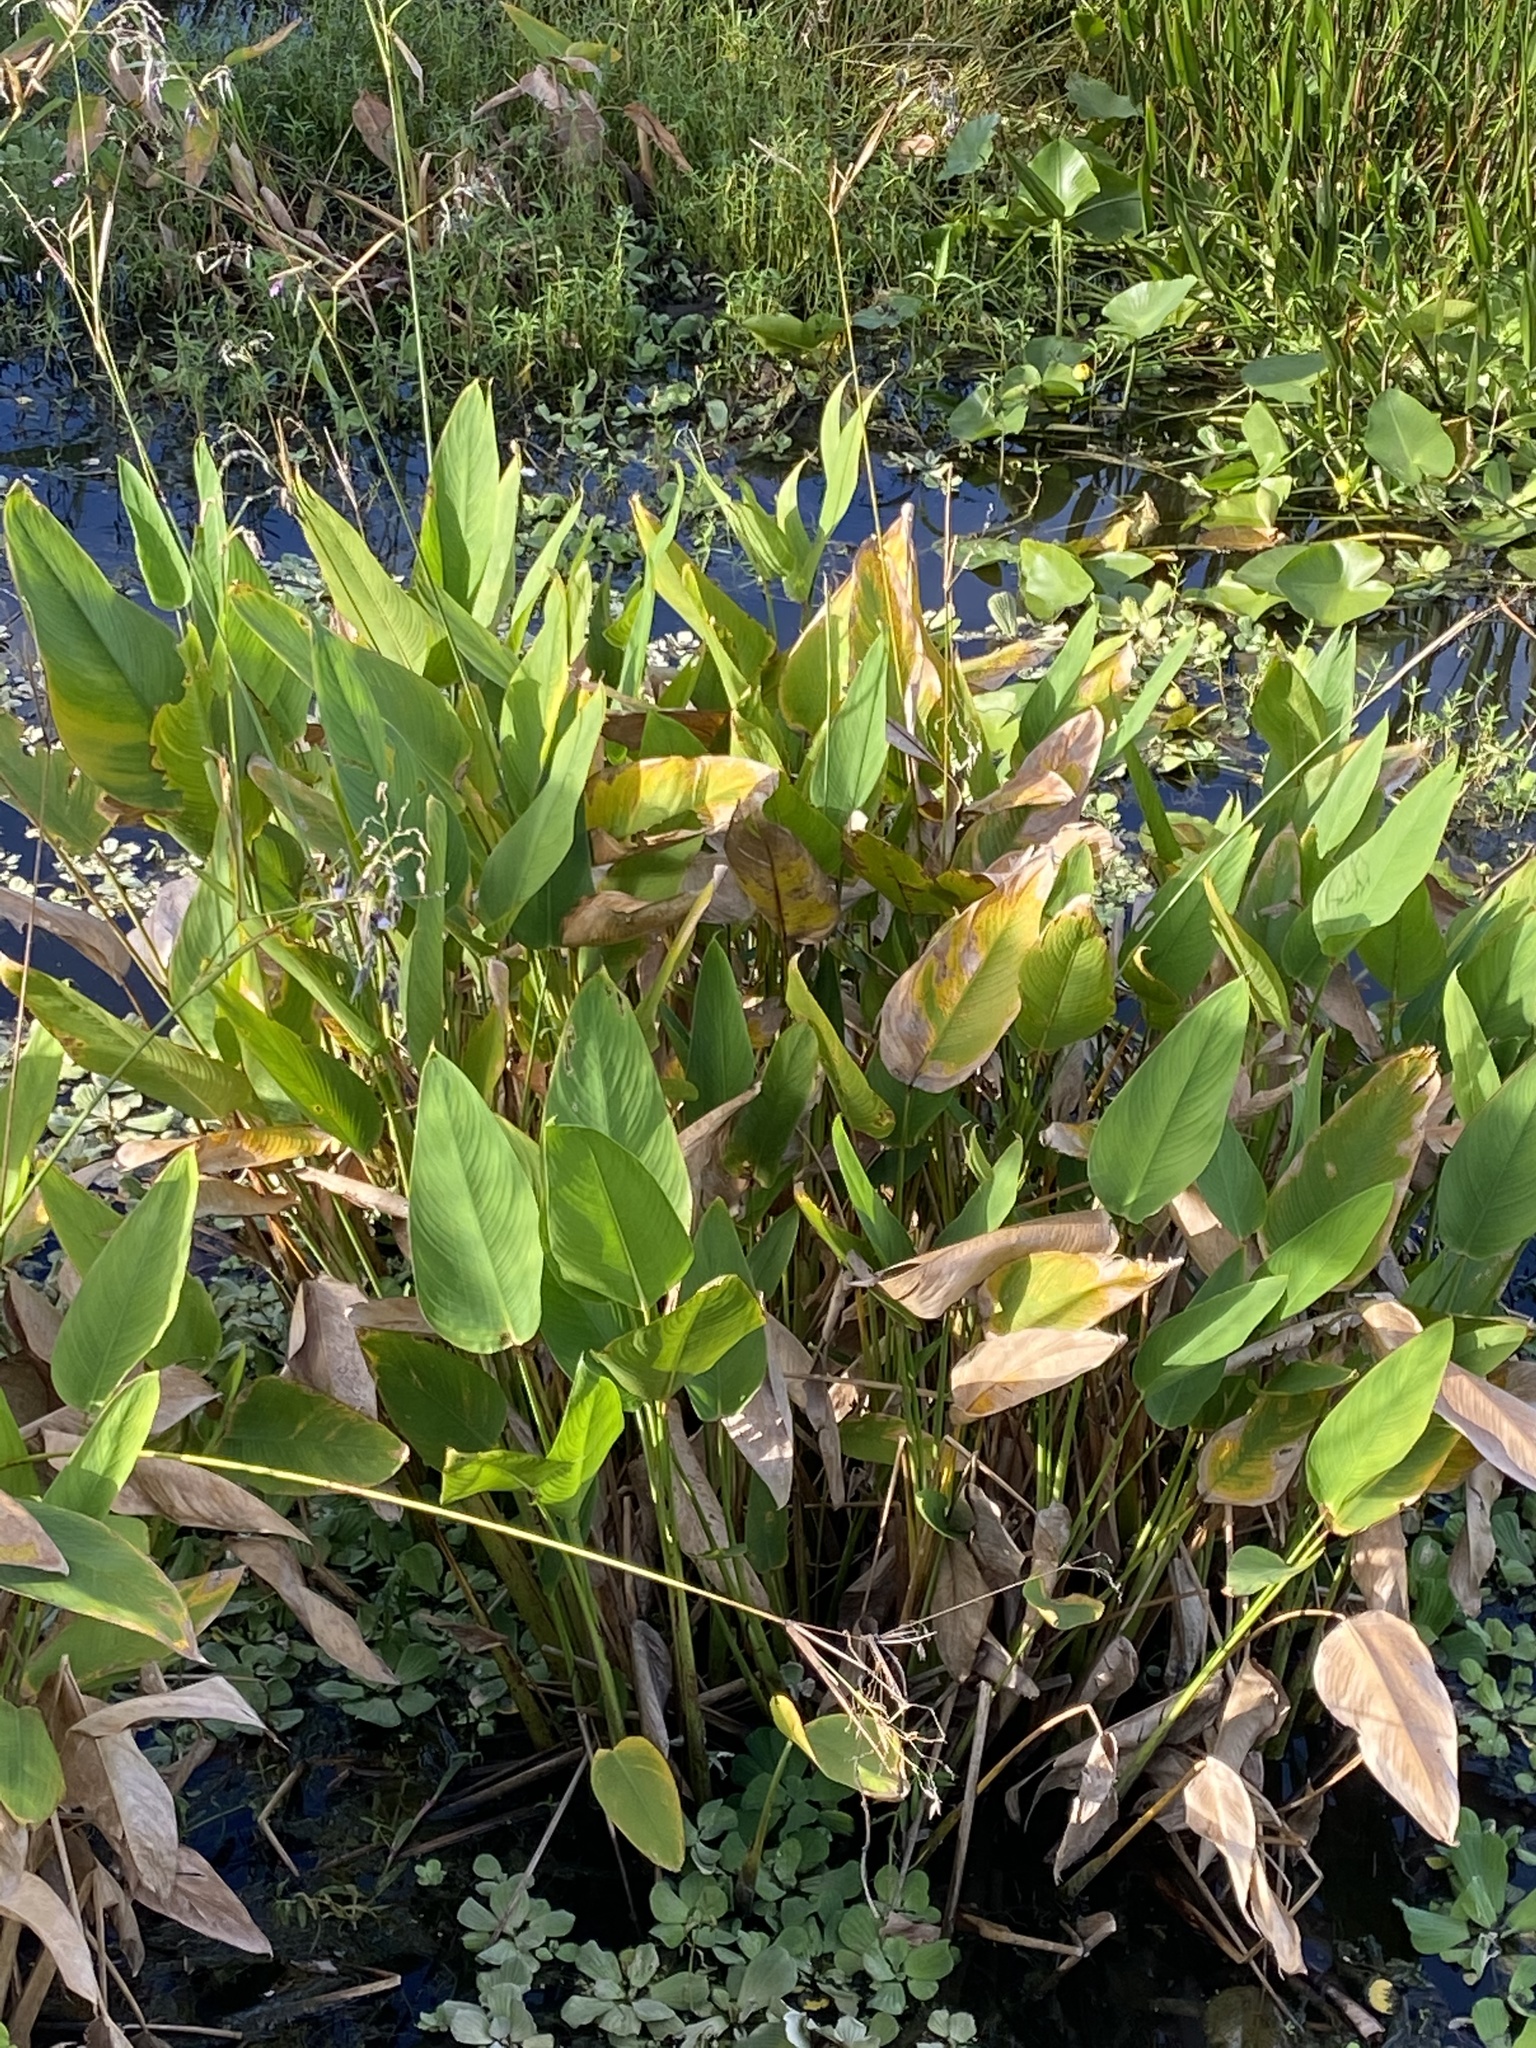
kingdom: Plantae
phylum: Tracheophyta
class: Liliopsida
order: Zingiberales
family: Marantaceae
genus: Thalia
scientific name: Thalia geniculata
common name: Arrowroot
